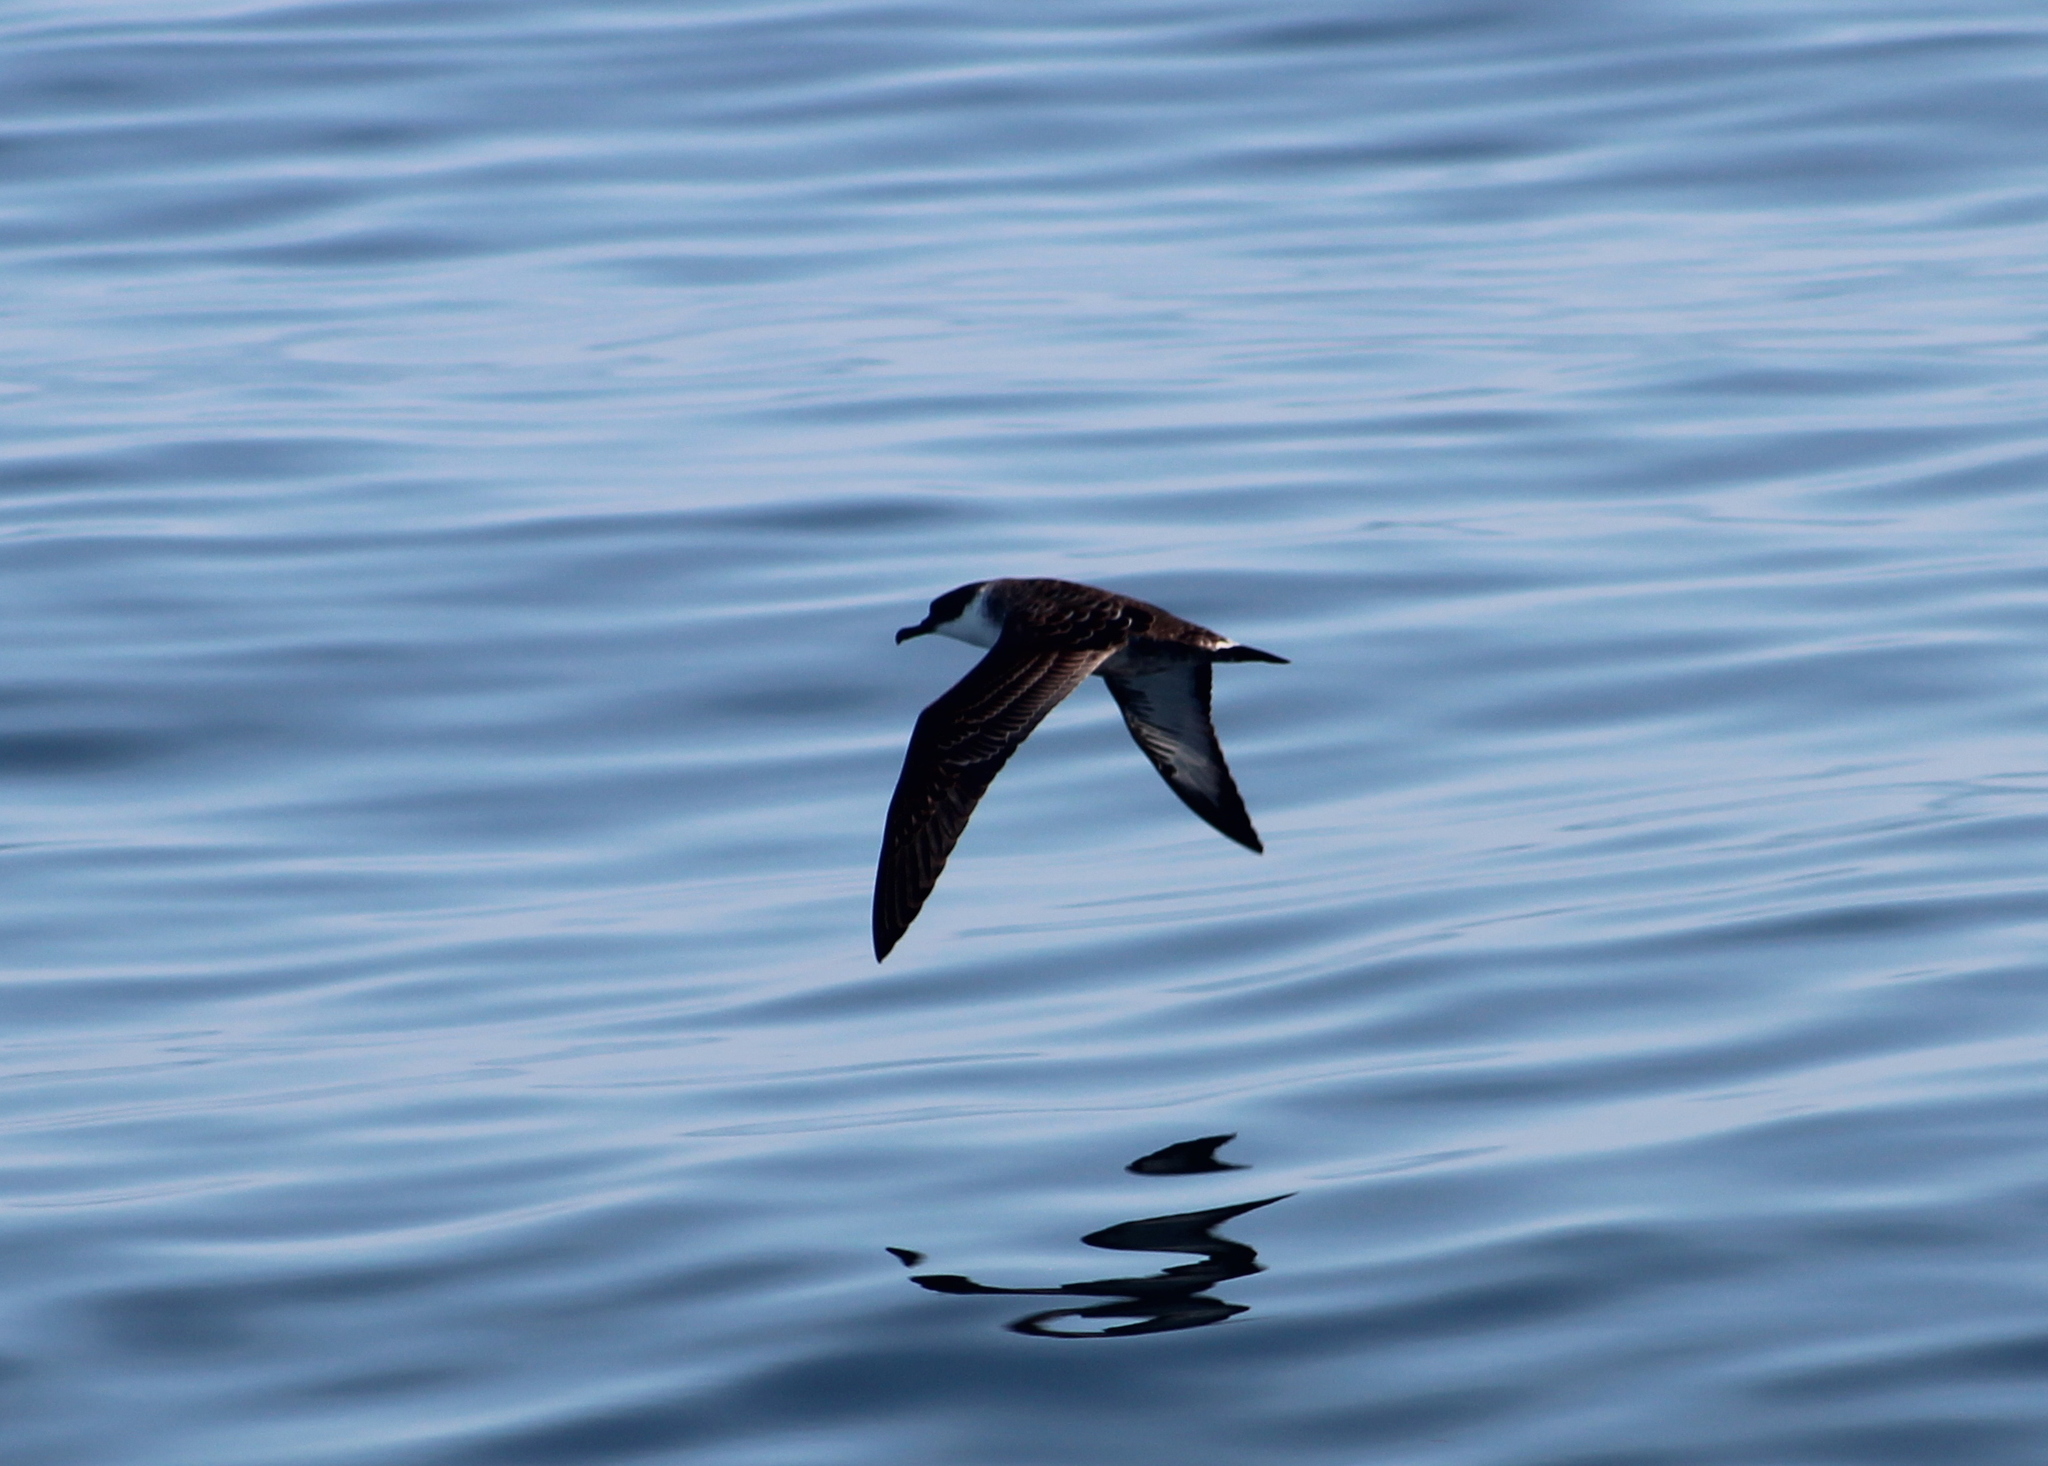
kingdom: Animalia
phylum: Chordata
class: Aves
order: Procellariiformes
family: Procellariidae
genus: Puffinus
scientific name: Puffinus gravis
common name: Great shearwater
